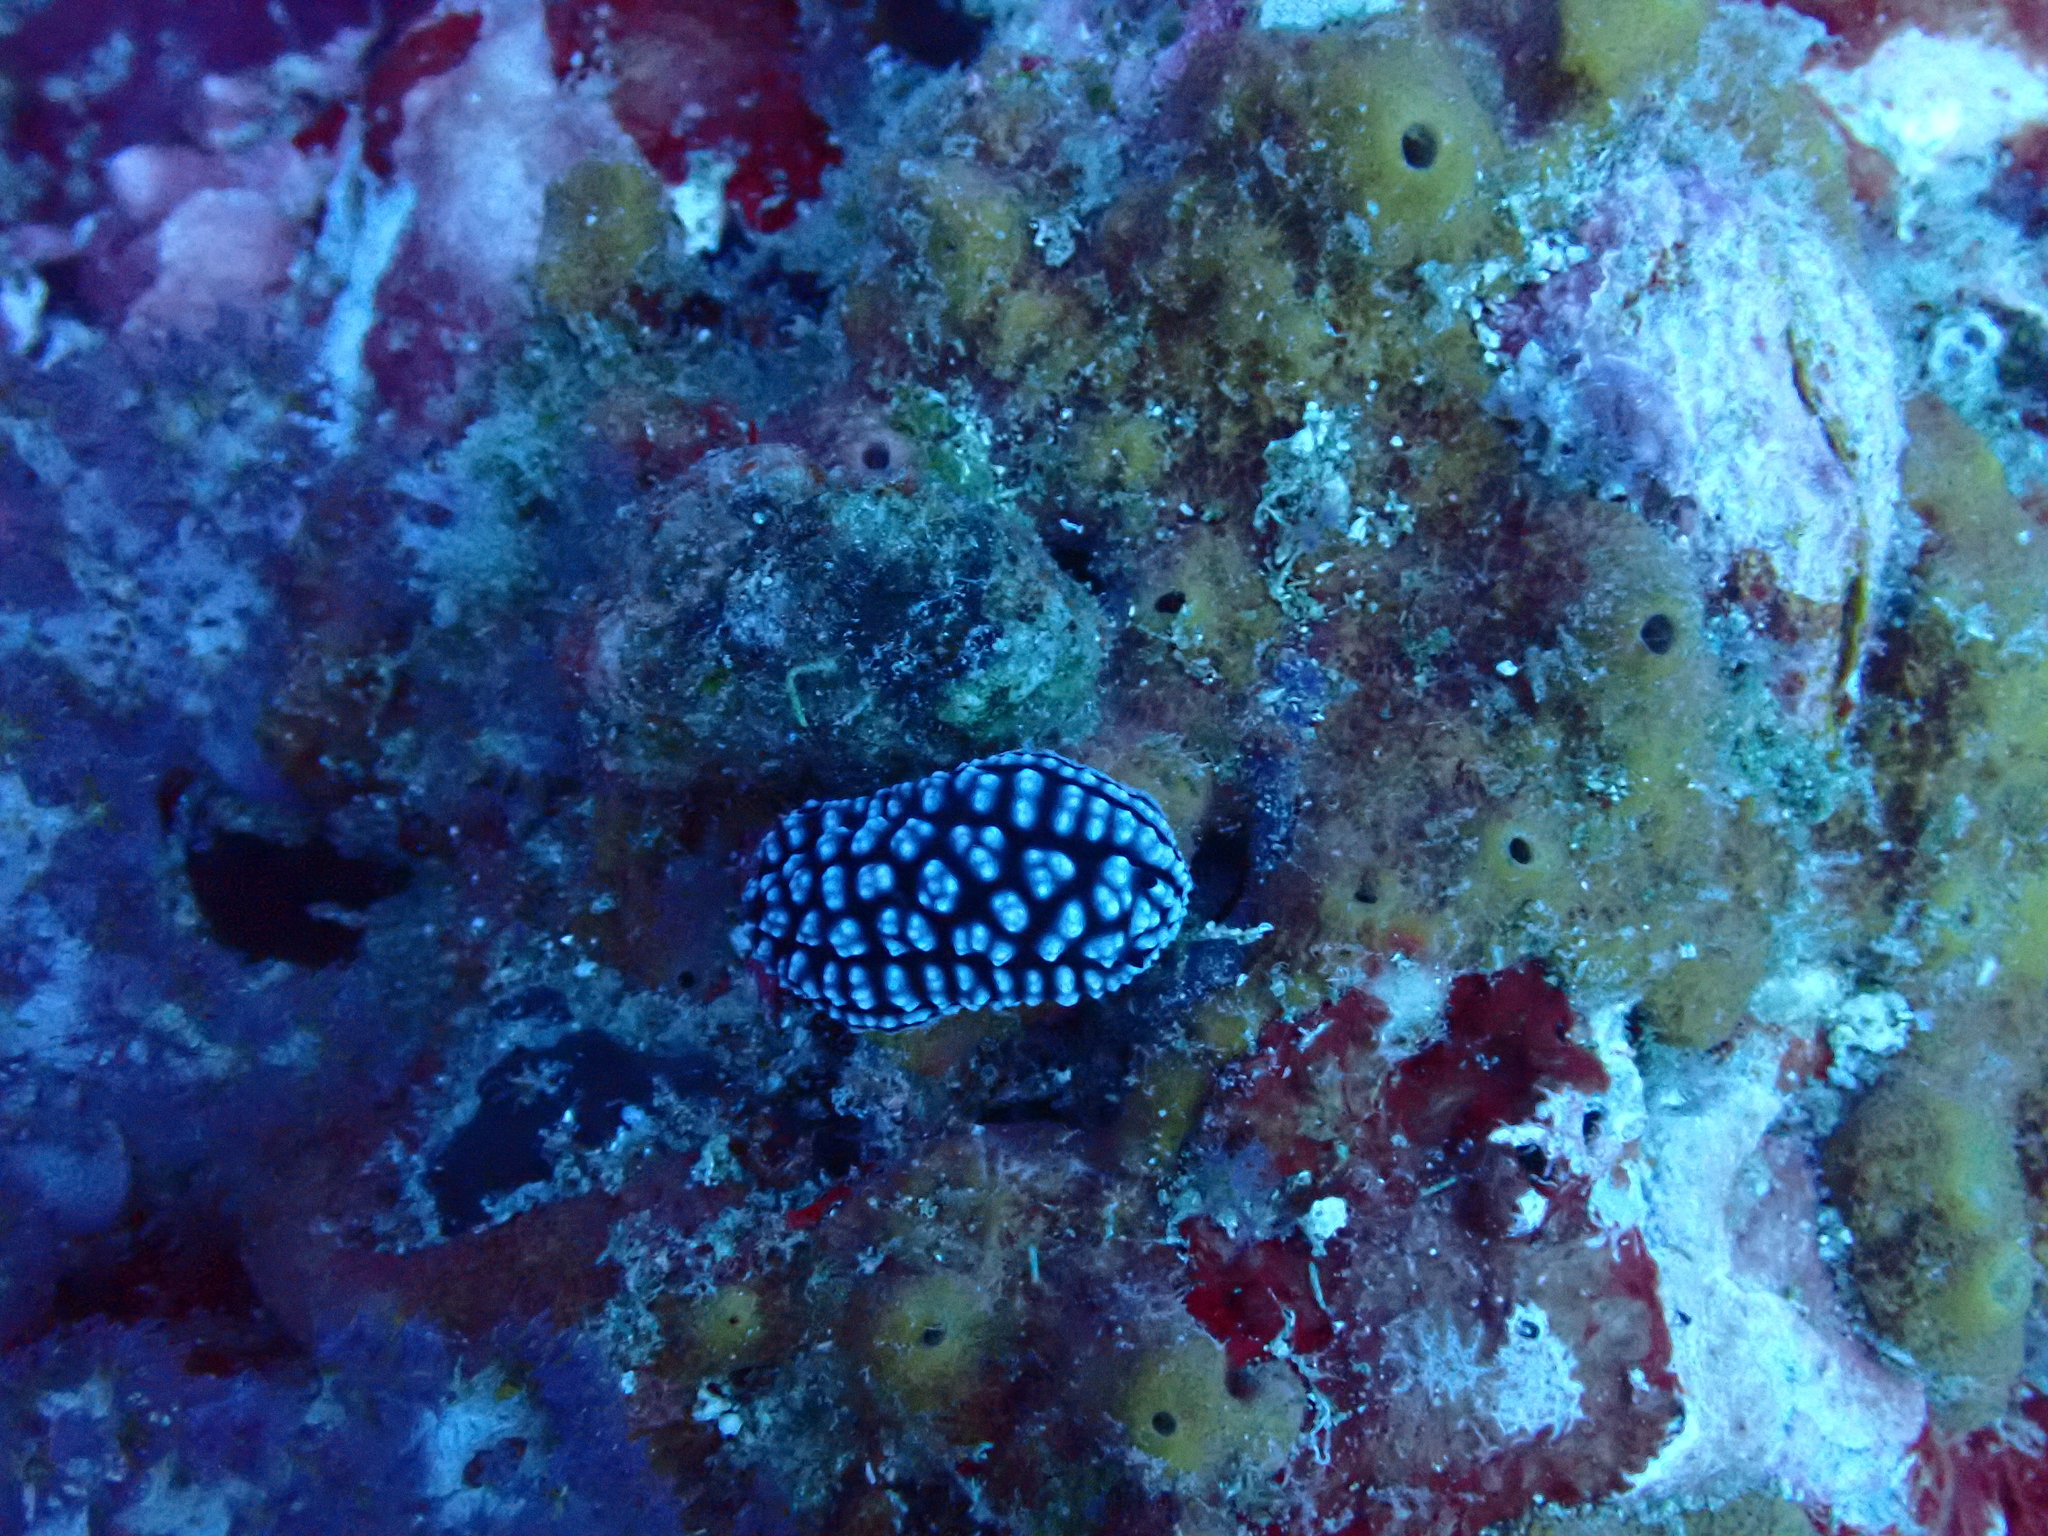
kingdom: Animalia
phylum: Mollusca
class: Gastropoda
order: Nudibranchia
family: Phyllidiidae
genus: Phyllidiella
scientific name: Phyllidiella pustulosa
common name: Pustular phyllidia
